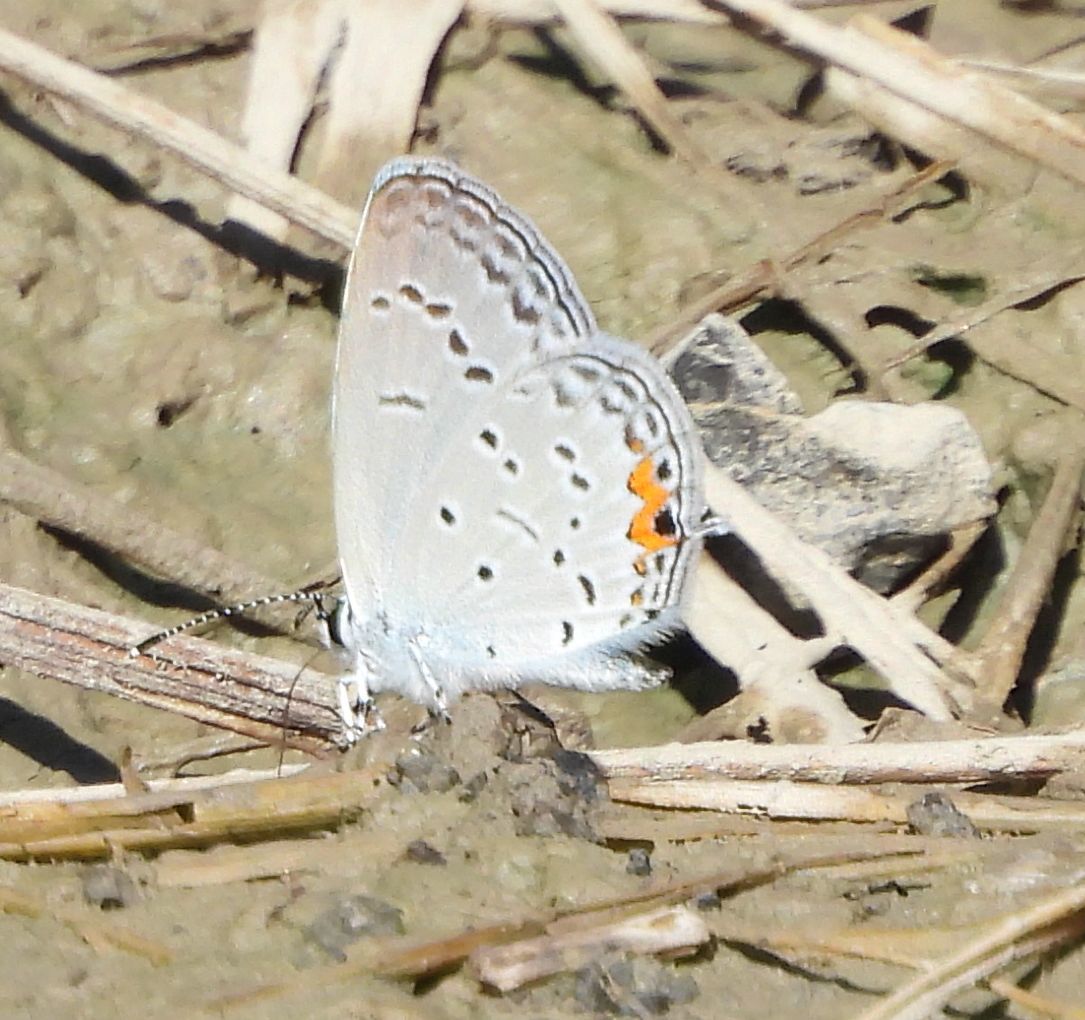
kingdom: Animalia
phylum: Arthropoda
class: Insecta
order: Lepidoptera
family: Lycaenidae
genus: Elkalyce
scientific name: Elkalyce comyntas
